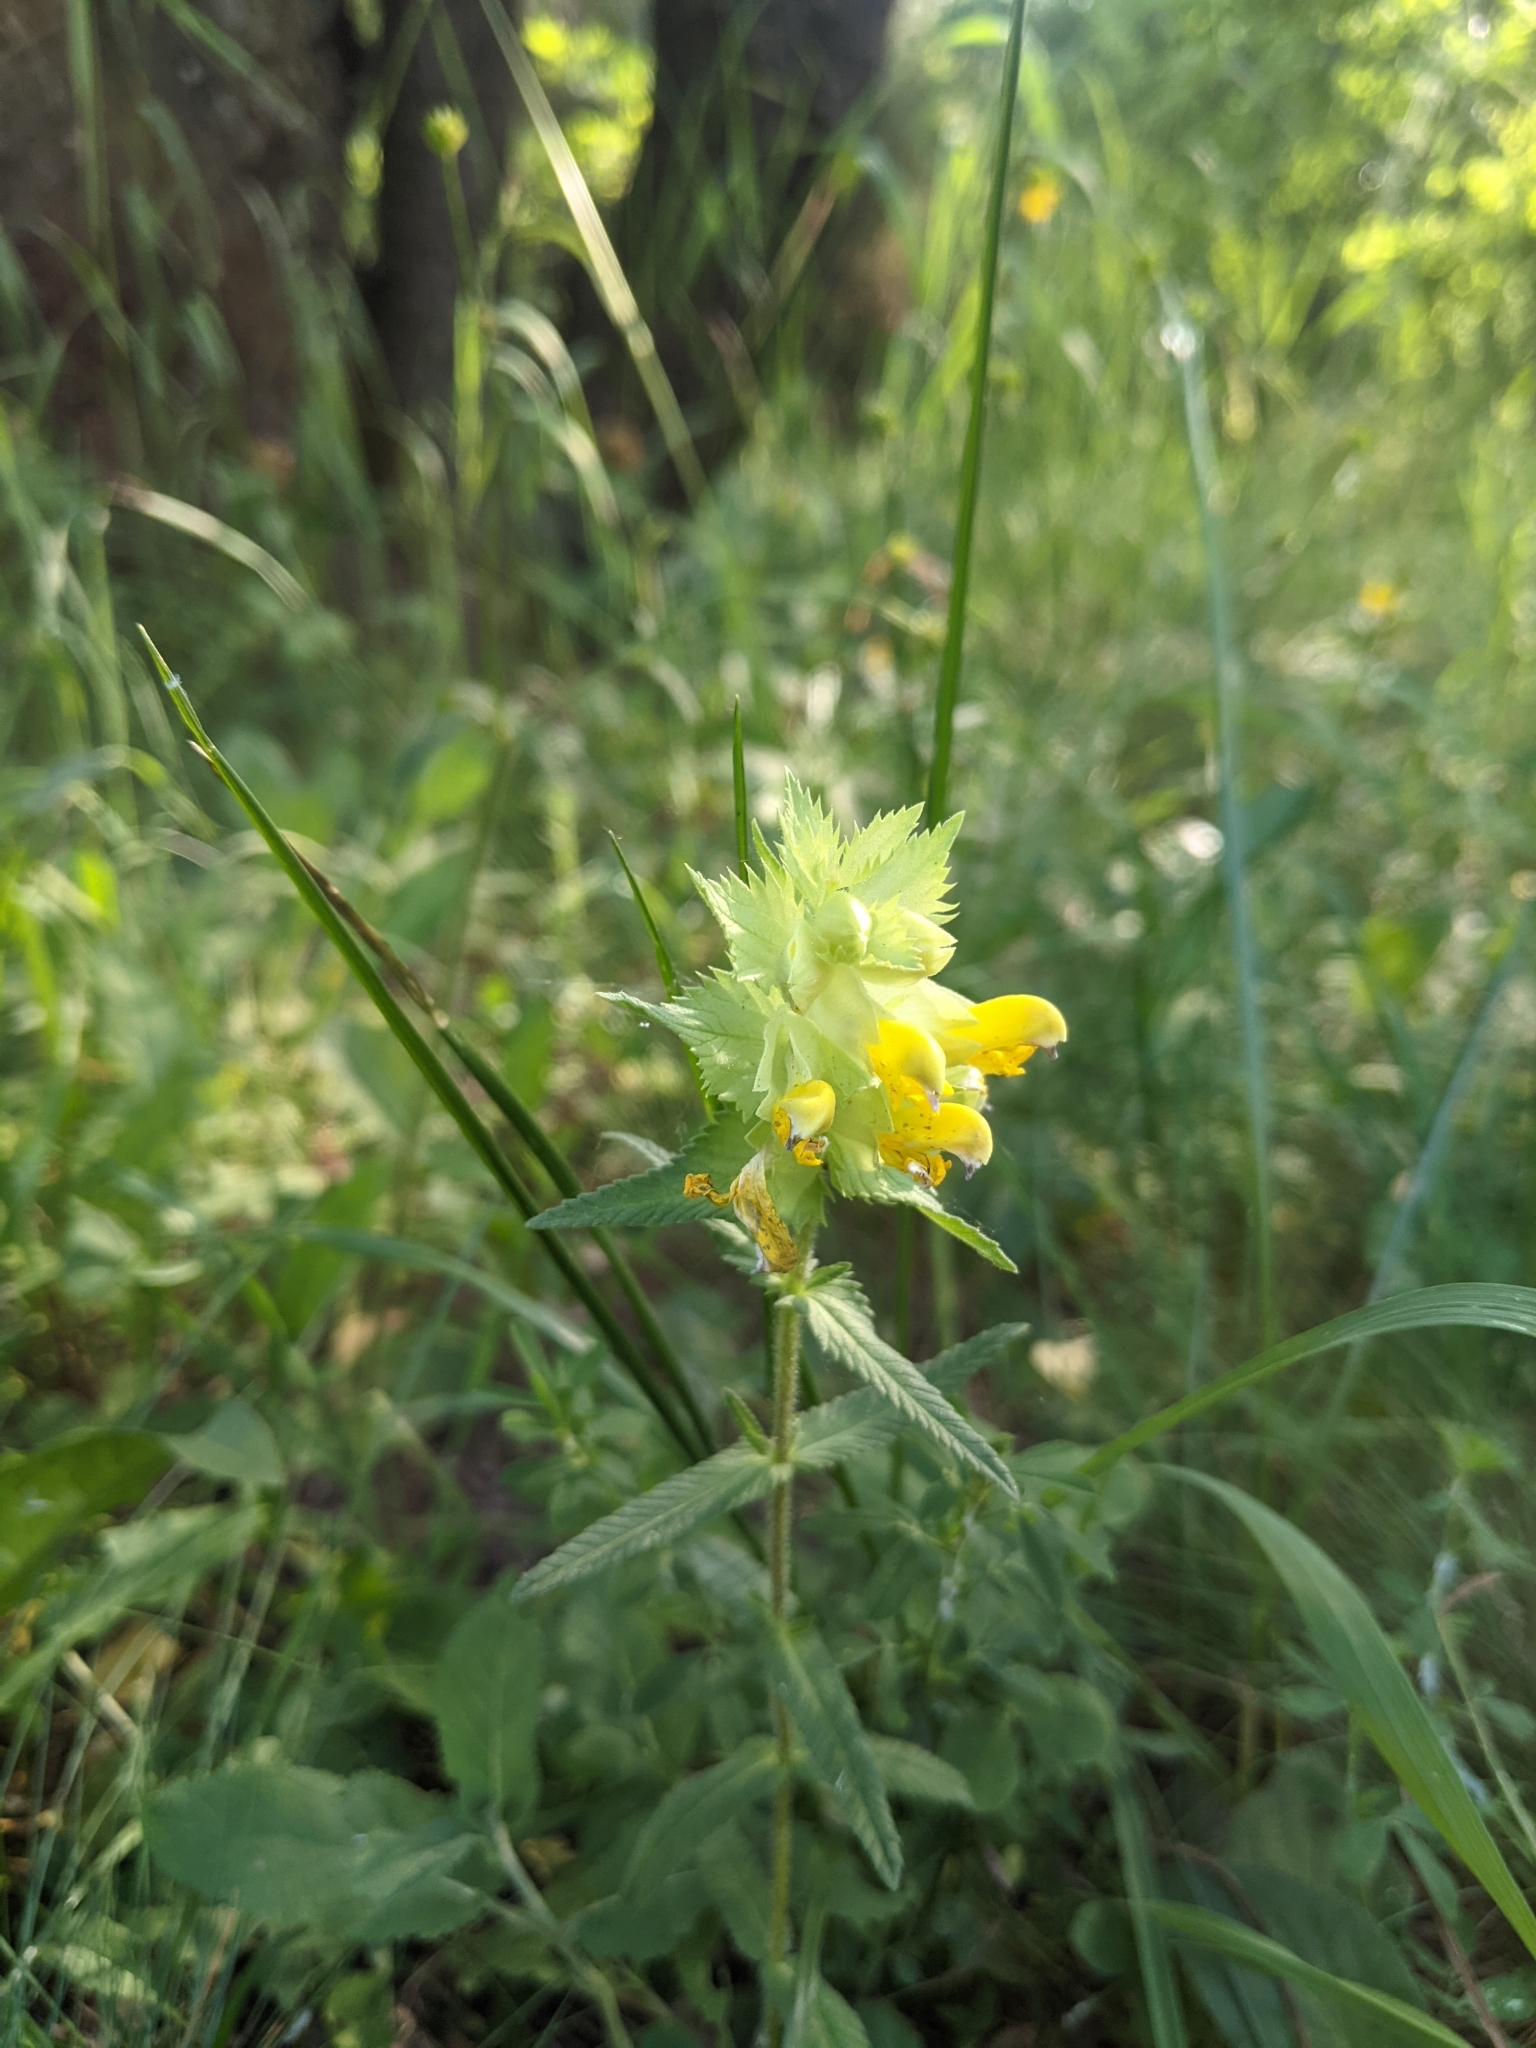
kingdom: Plantae
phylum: Tracheophyta
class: Magnoliopsida
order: Lamiales
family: Orobanchaceae
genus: Rhinanthus
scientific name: Rhinanthus serotinus
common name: Late-flowering yellow rattle
